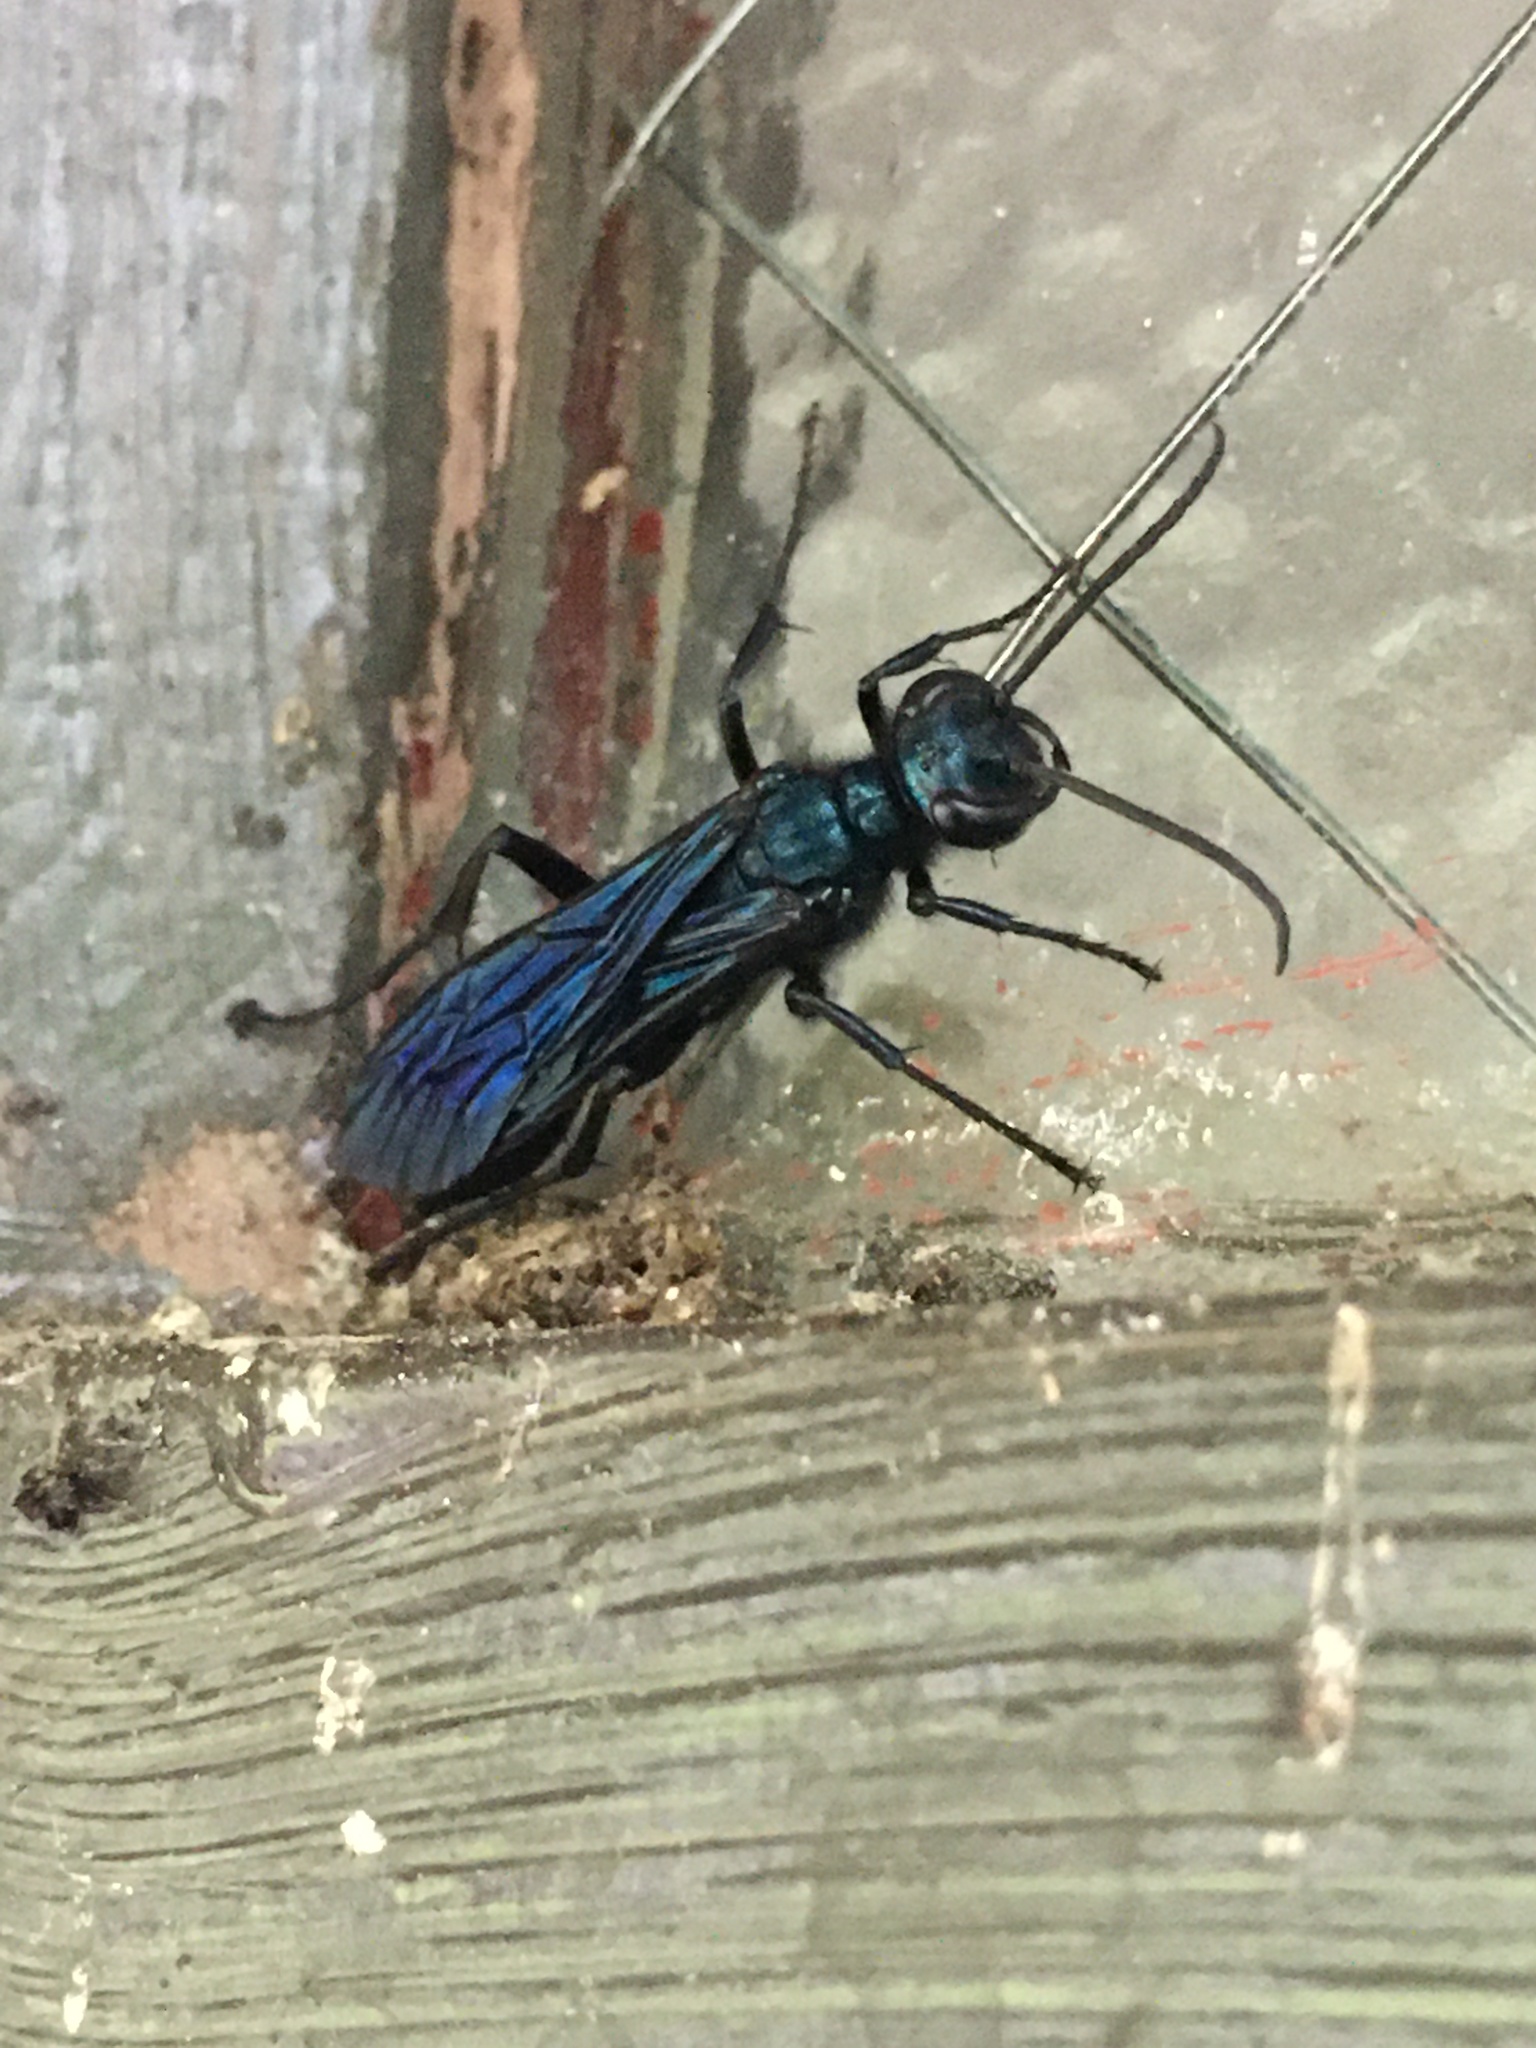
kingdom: Animalia
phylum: Arthropoda
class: Insecta
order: Hymenoptera
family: Sphecidae
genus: Chalybion
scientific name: Chalybion californicum
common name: Mud dauber
